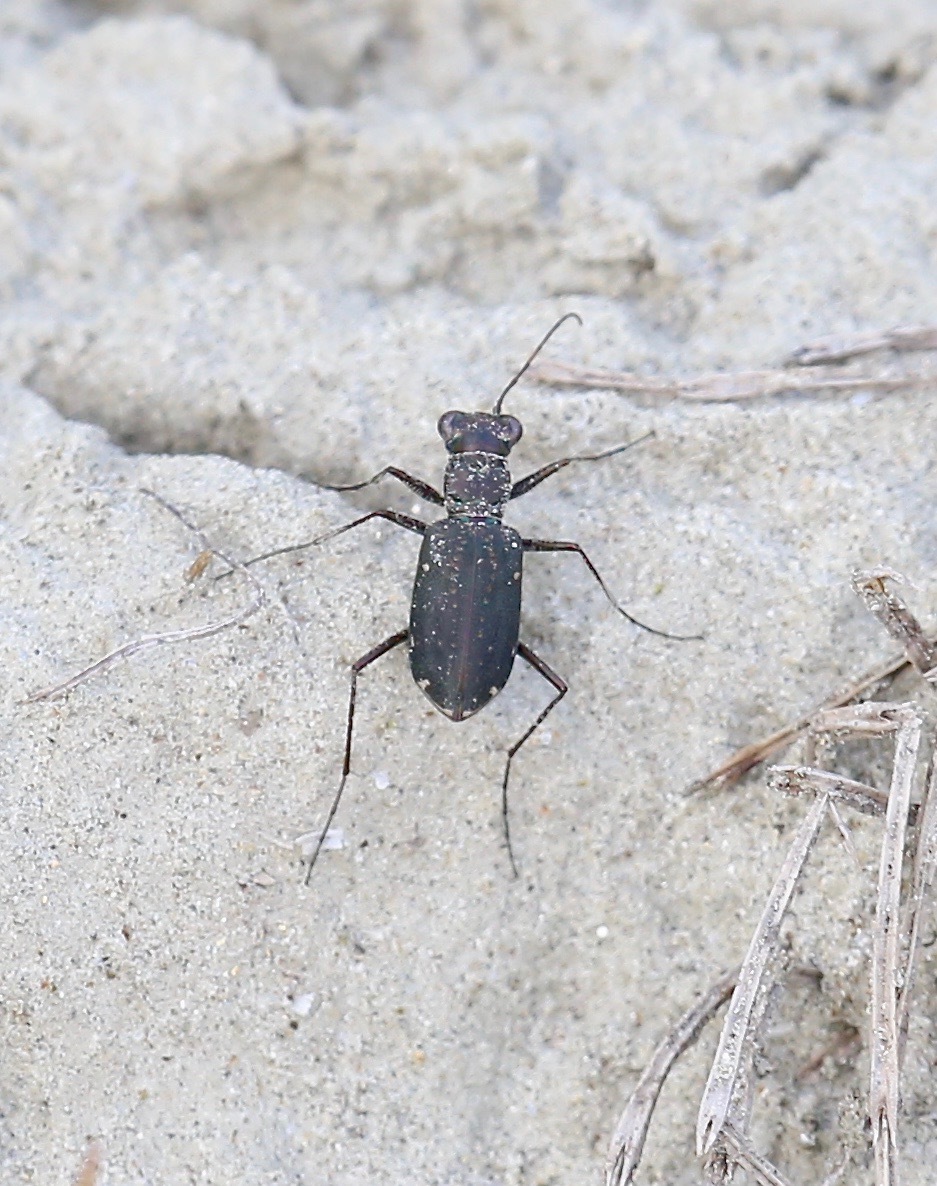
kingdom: Animalia
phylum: Arthropoda
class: Insecta
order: Coleoptera
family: Carabidae
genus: Cicindela
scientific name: Cicindela punctulata
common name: Punctured tiger beetle
